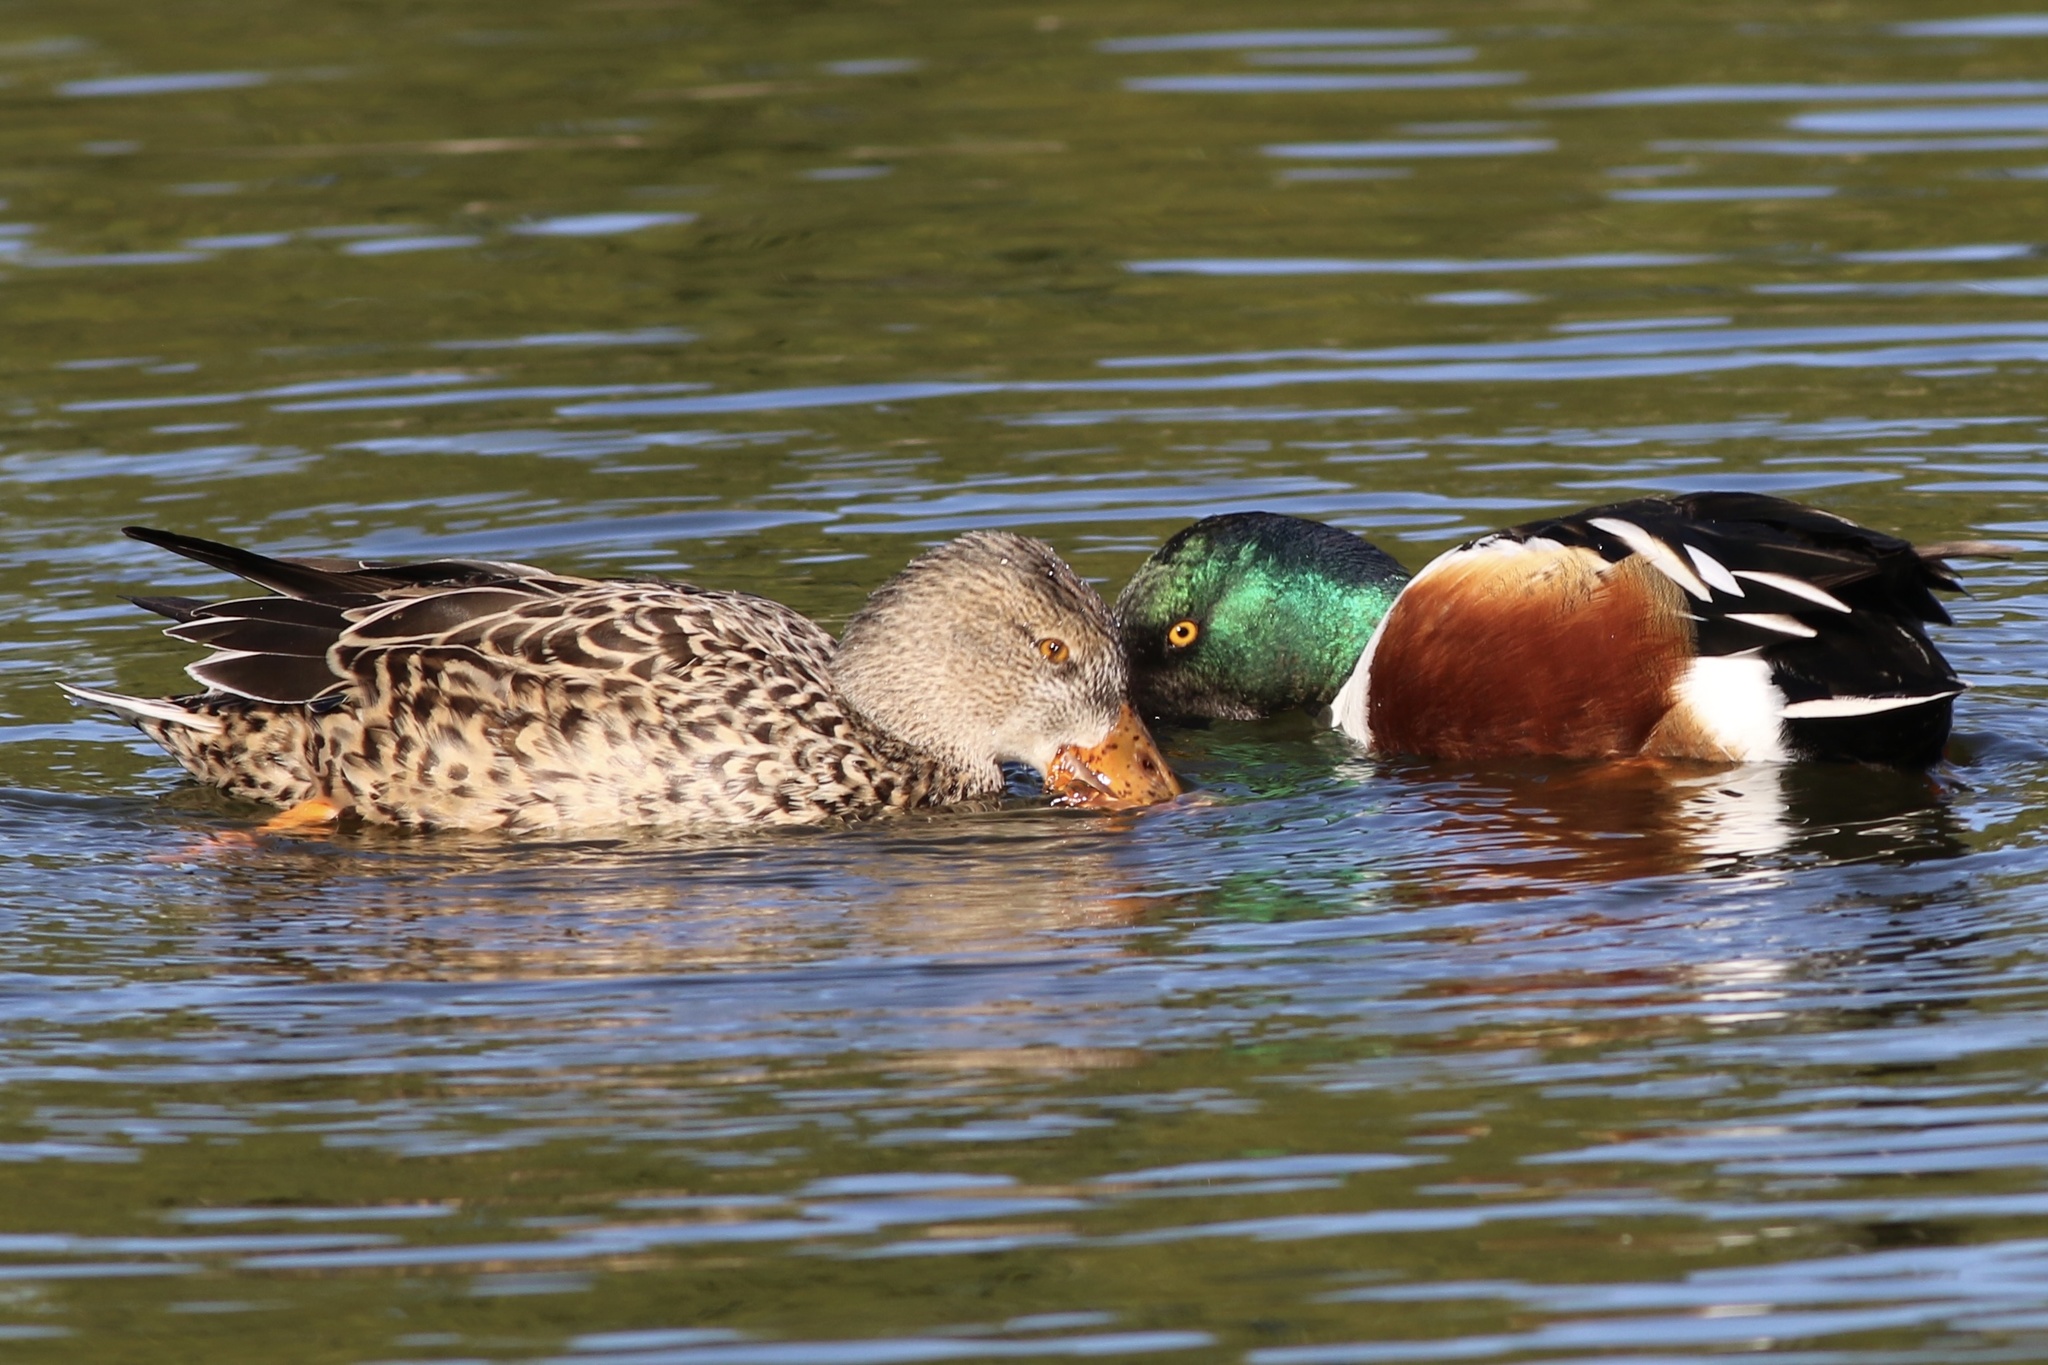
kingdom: Animalia
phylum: Chordata
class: Aves
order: Anseriformes
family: Anatidae
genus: Spatula
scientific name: Spatula clypeata
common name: Northern shoveler
